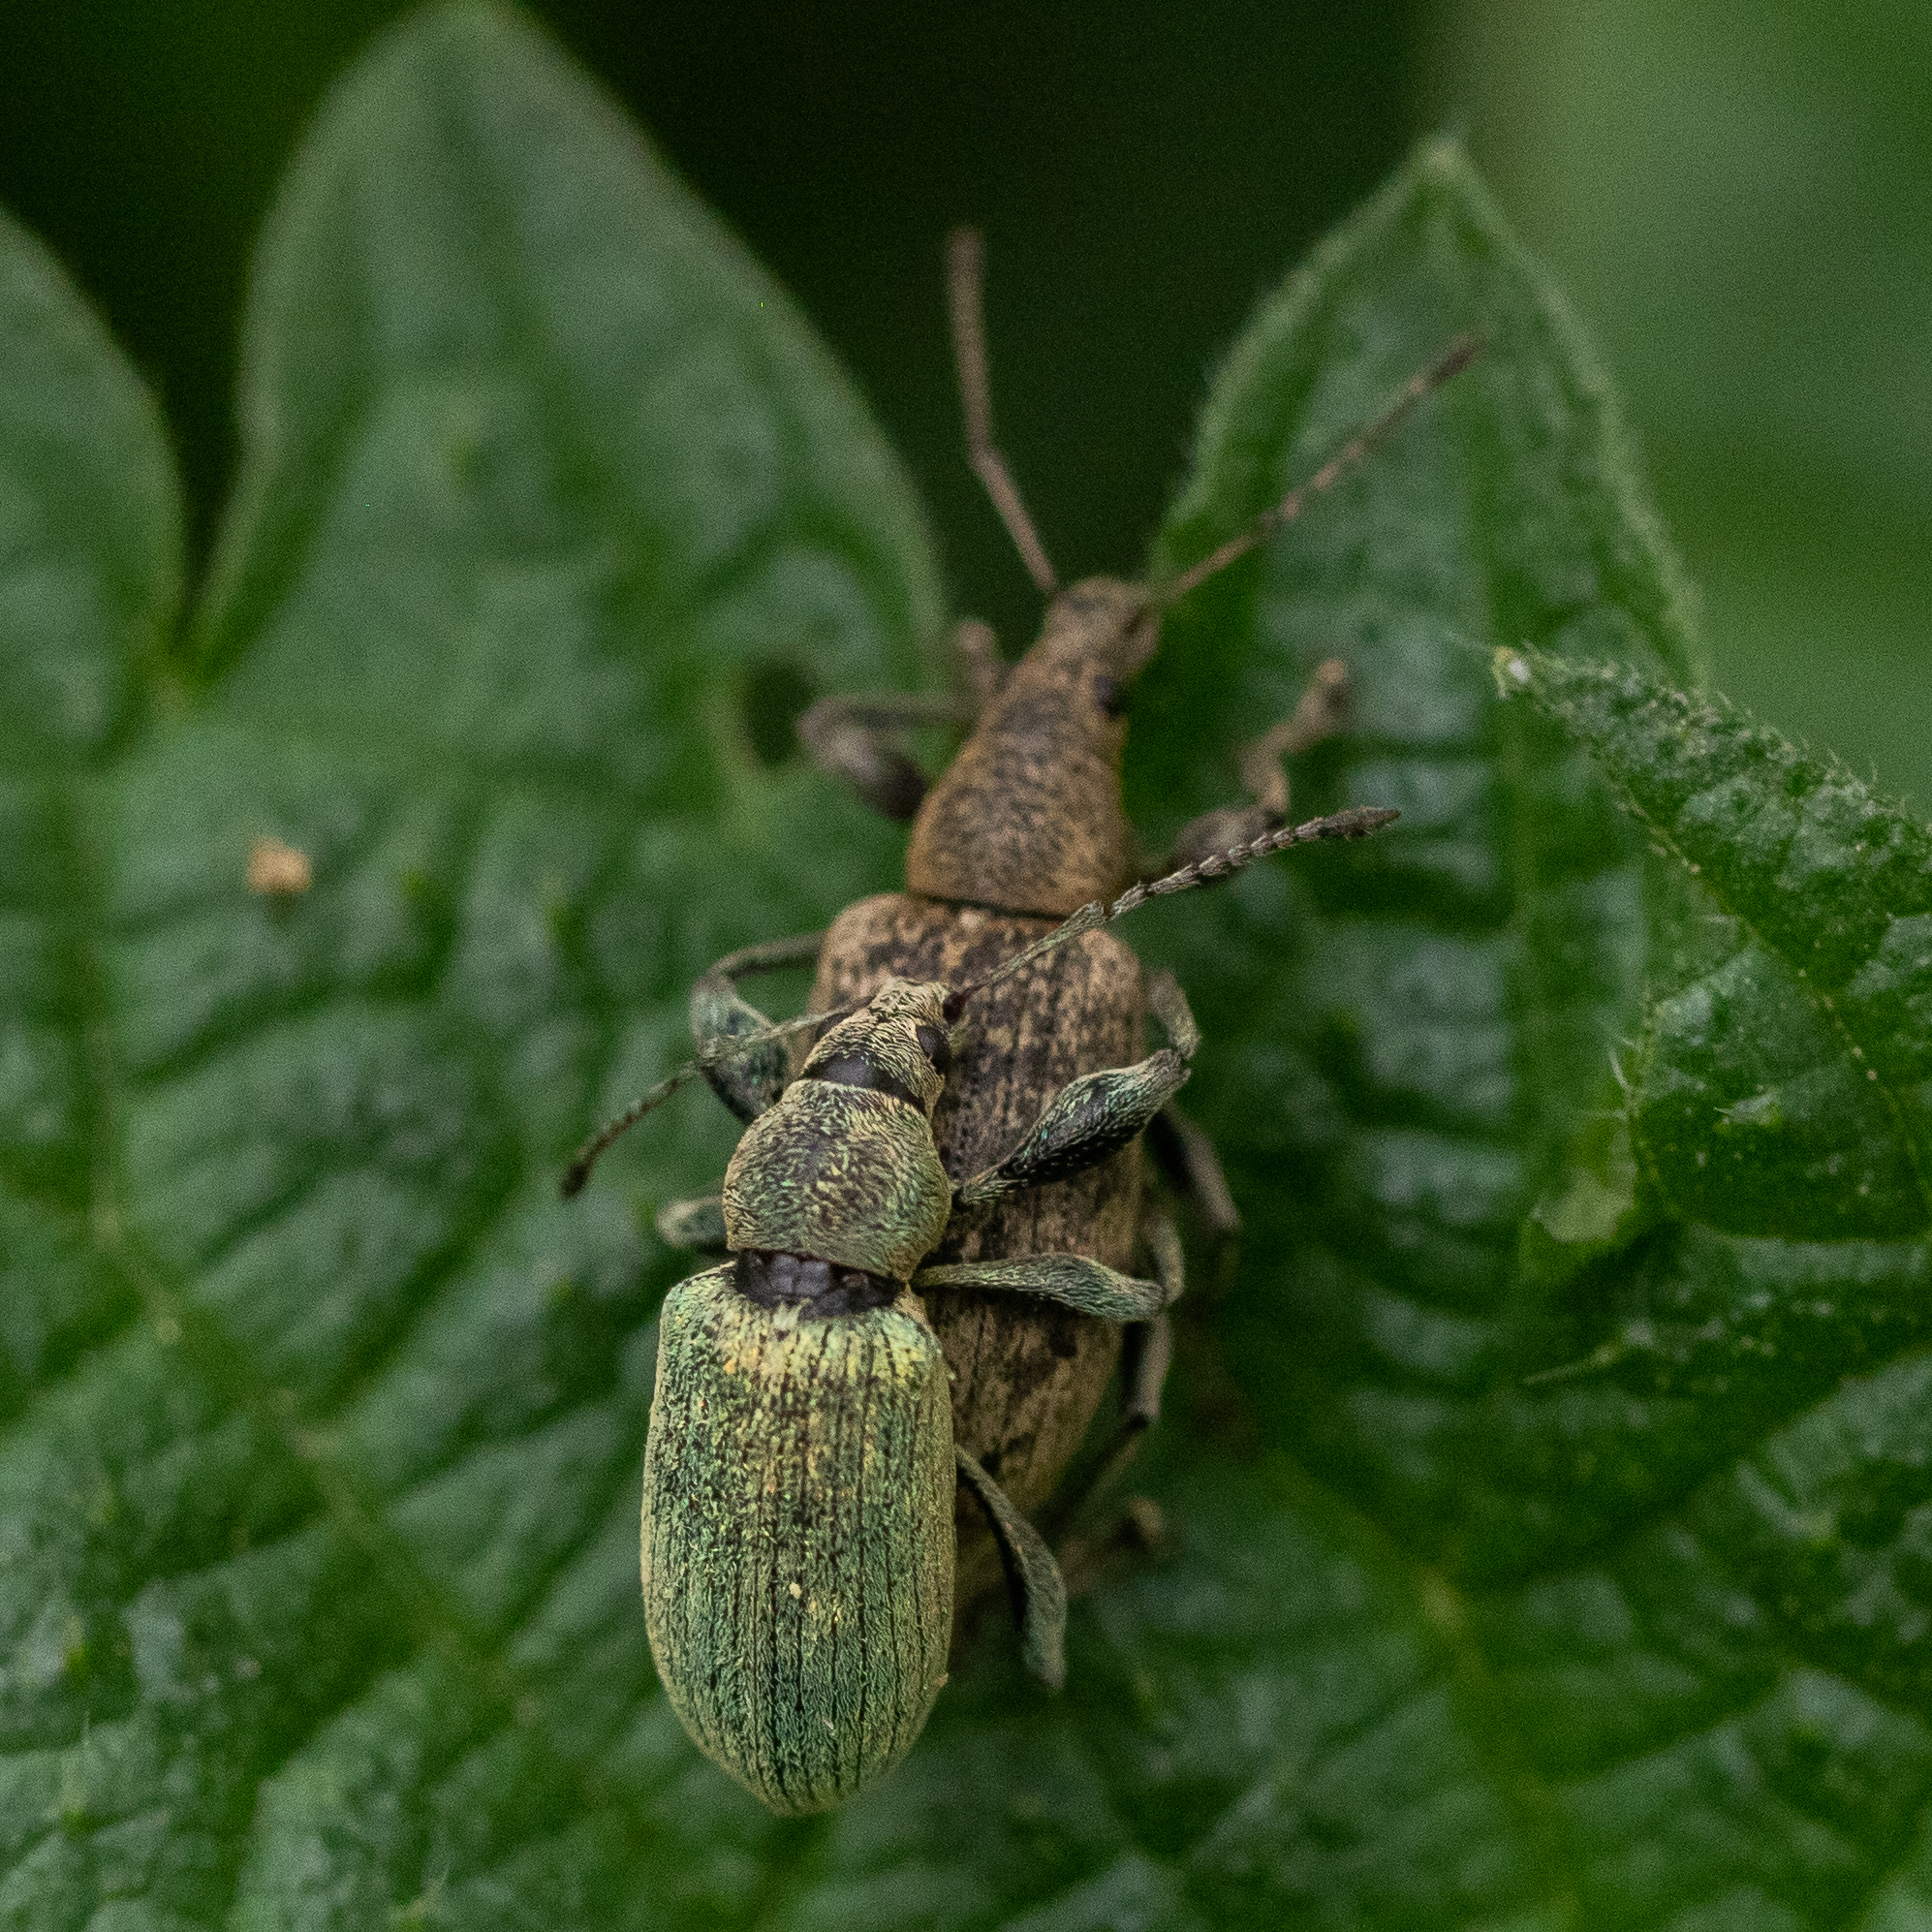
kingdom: Animalia
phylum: Arthropoda
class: Insecta
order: Coleoptera
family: Curculionidae
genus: Phyllobius
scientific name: Phyllobius pomaceus
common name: Green nettle weevil
